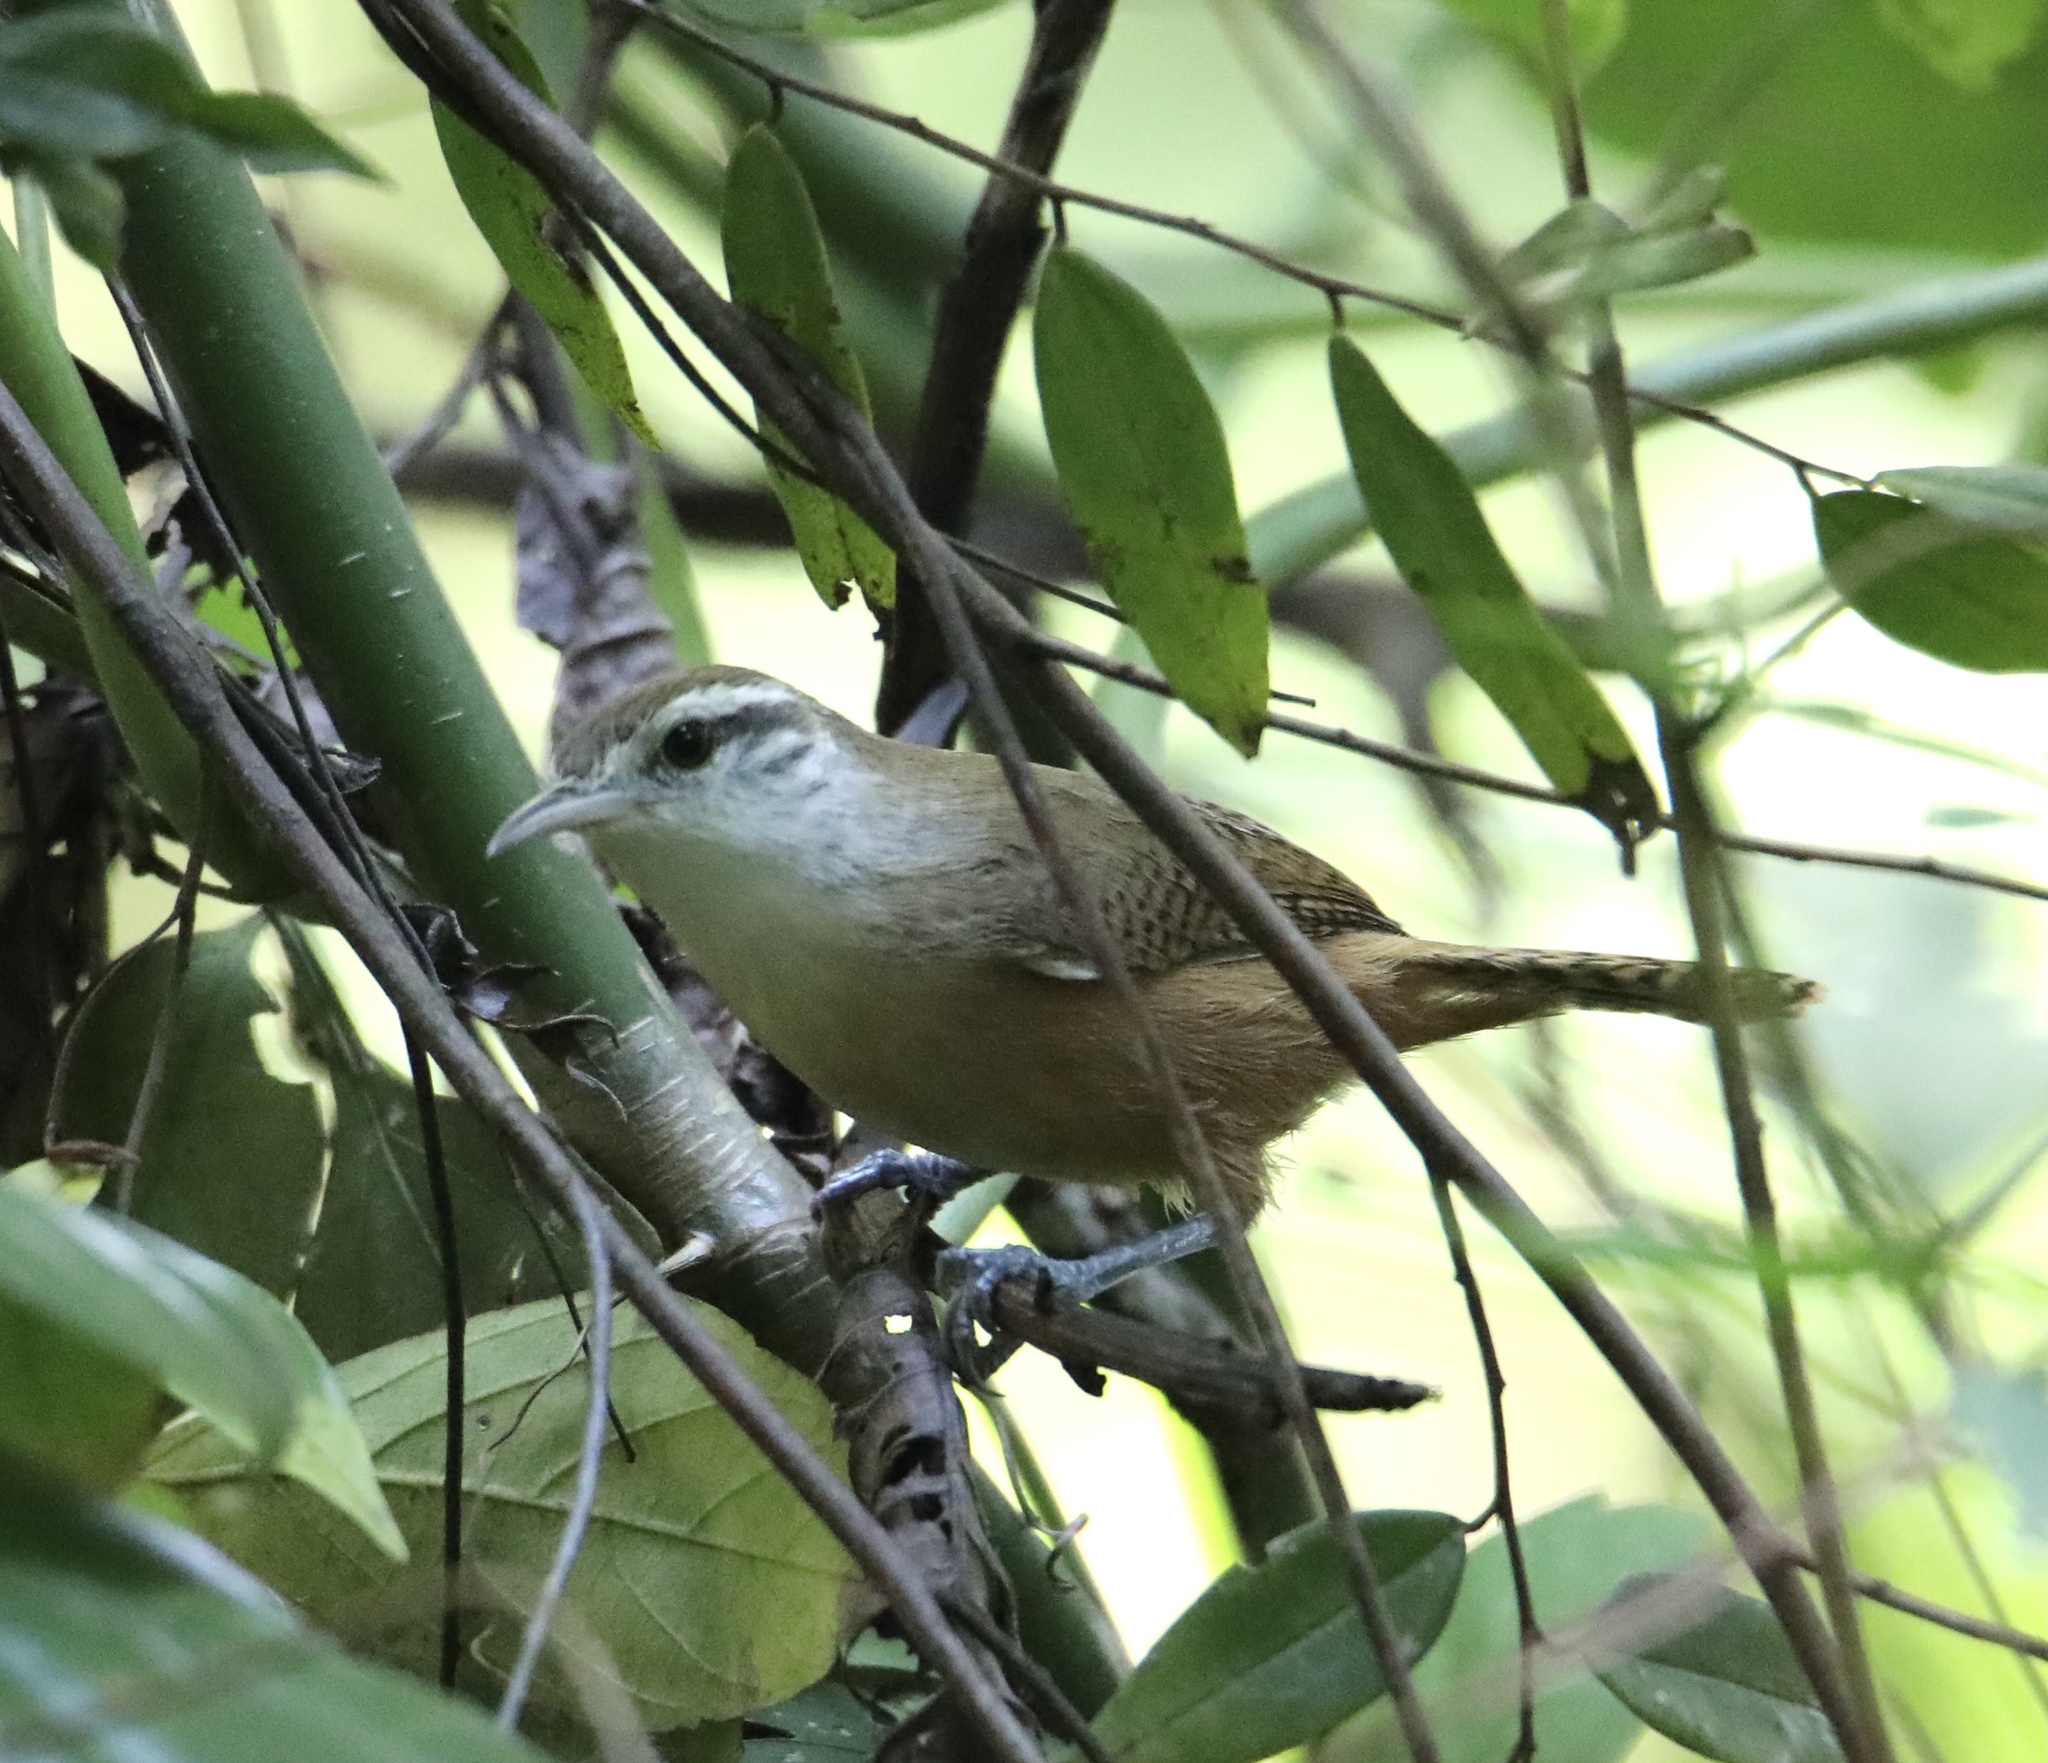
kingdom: Animalia
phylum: Chordata
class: Aves
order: Passeriformes
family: Troglodytidae
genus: Cantorchilus
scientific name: Cantorchilus leucotis
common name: Buff-breasted wren
